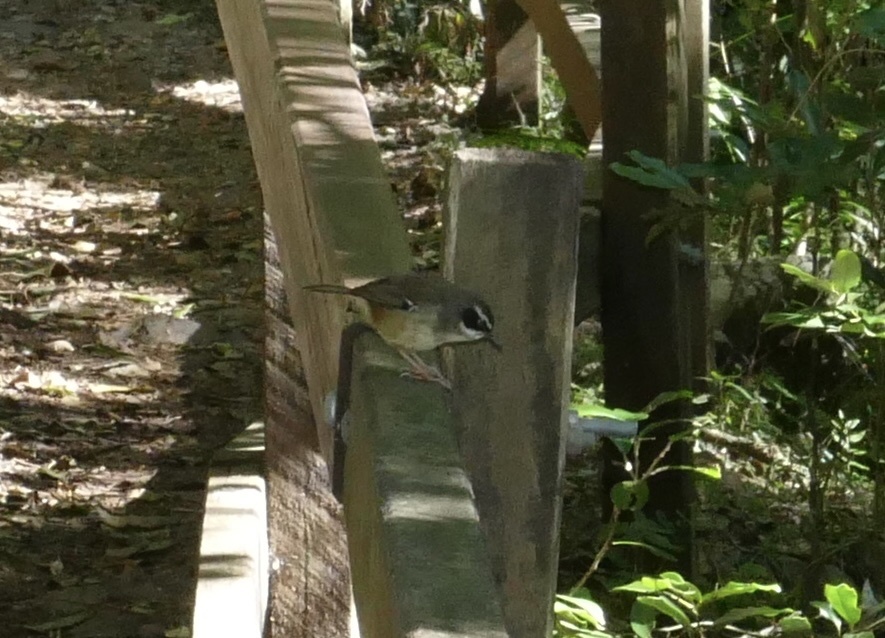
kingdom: Animalia
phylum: Chordata
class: Aves
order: Passeriformes
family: Acanthizidae
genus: Sericornis
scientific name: Sericornis frontalis
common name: White-browed scrubwren
